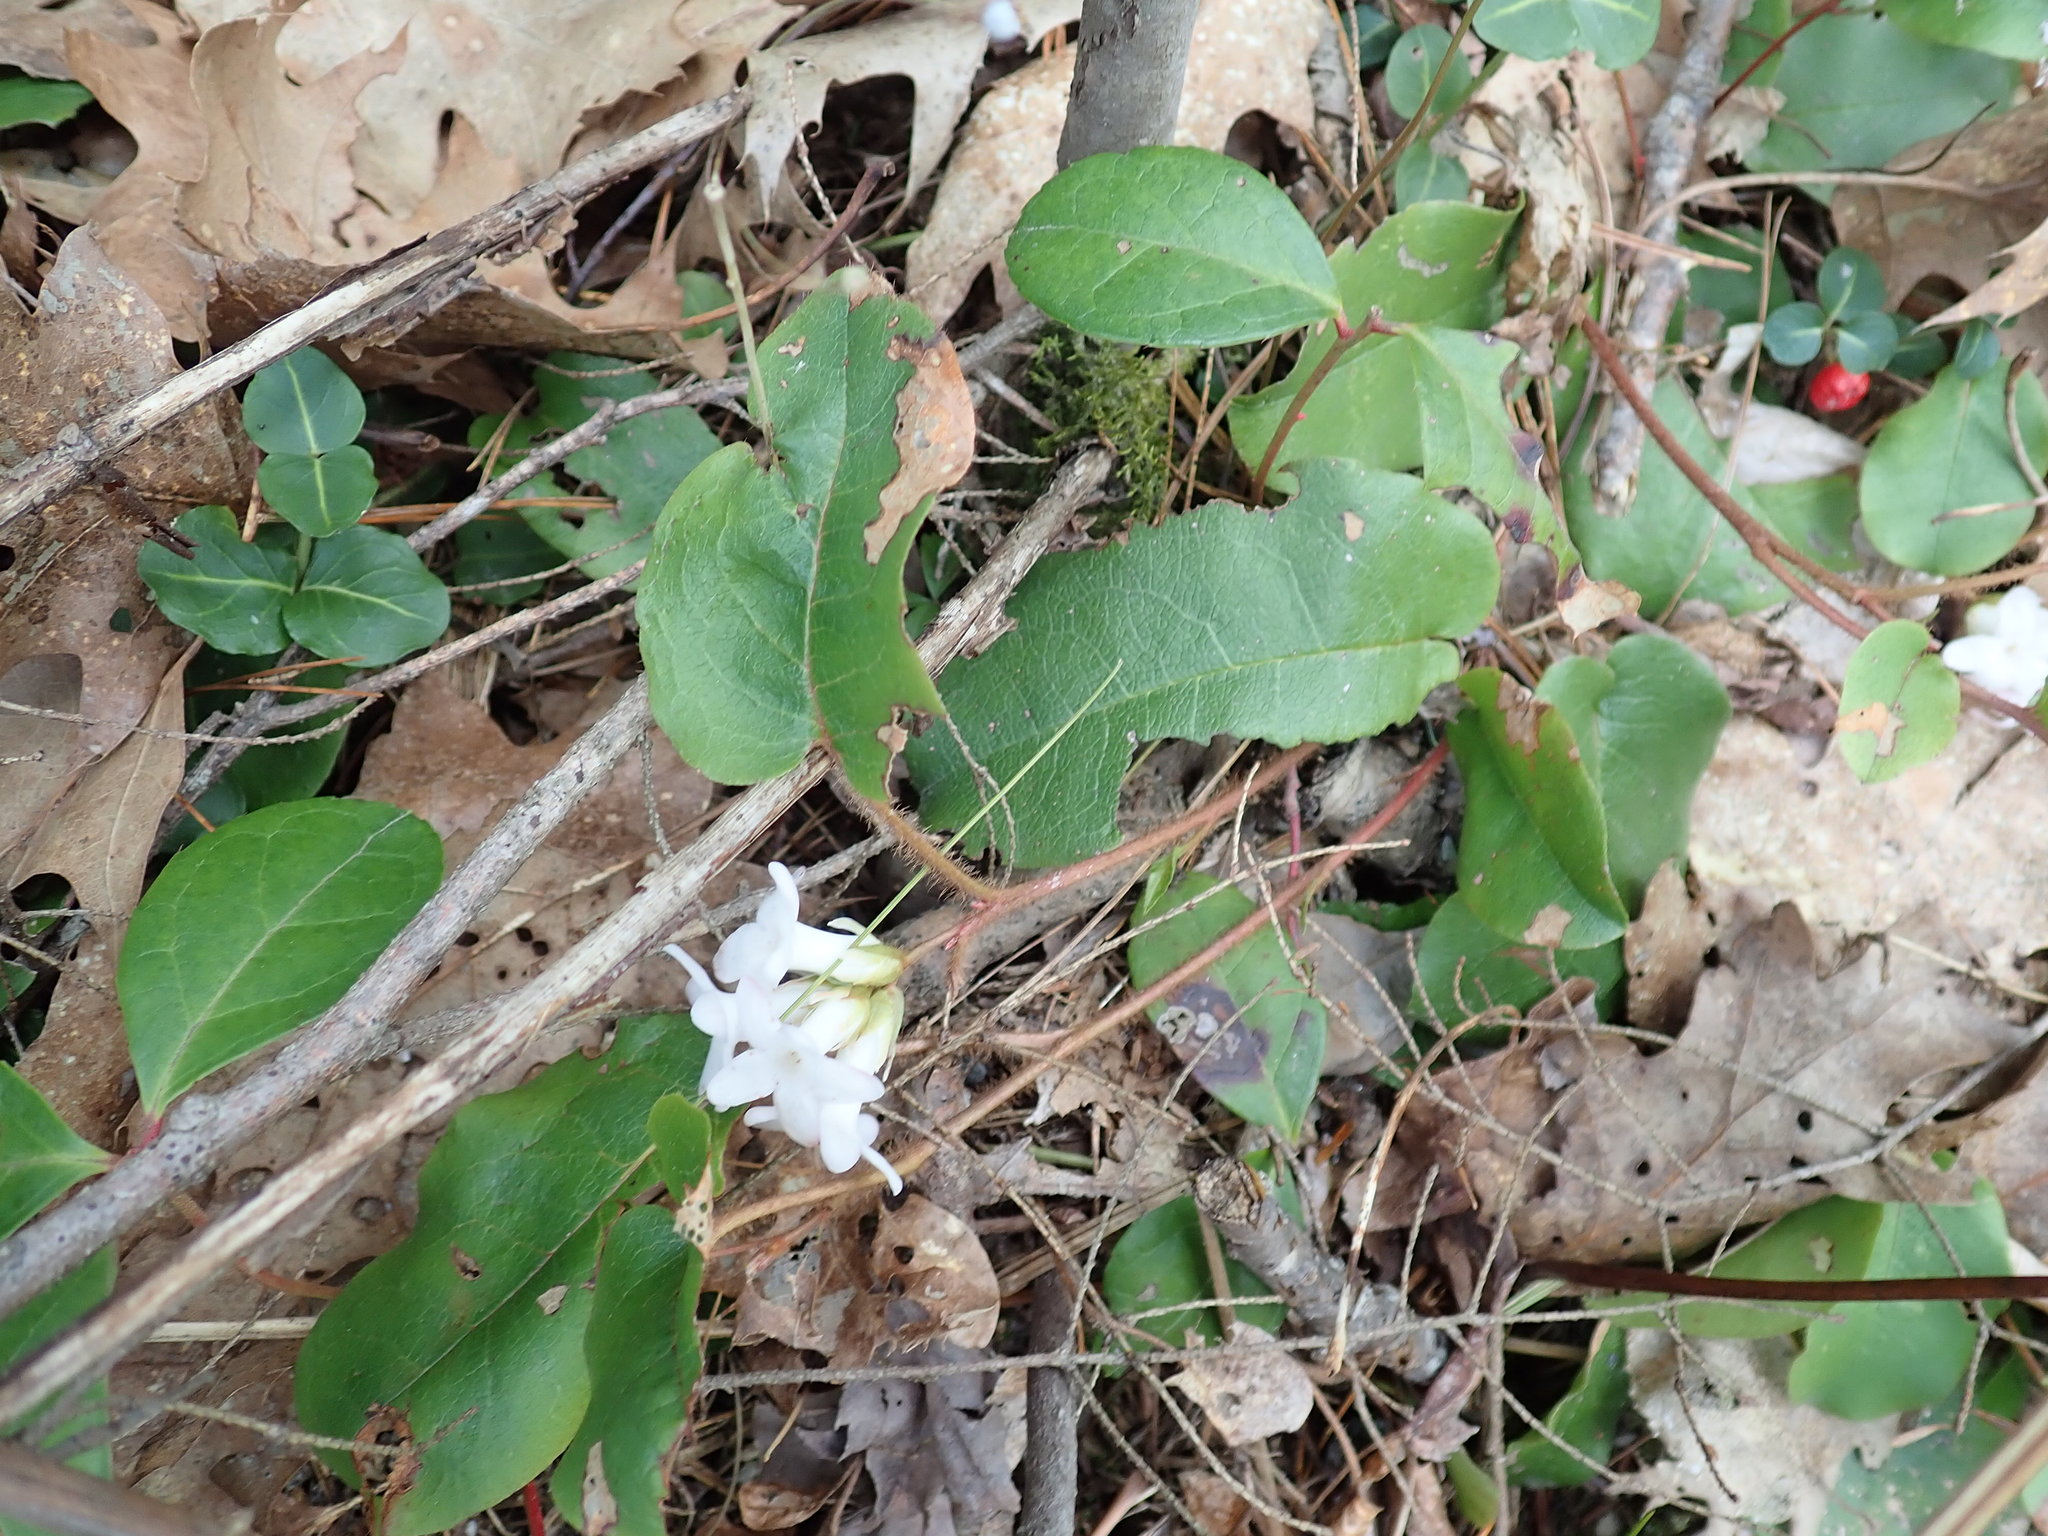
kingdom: Plantae
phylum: Tracheophyta
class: Magnoliopsida
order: Ericales
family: Ericaceae
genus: Epigaea
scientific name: Epigaea repens
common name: Gravelroot
